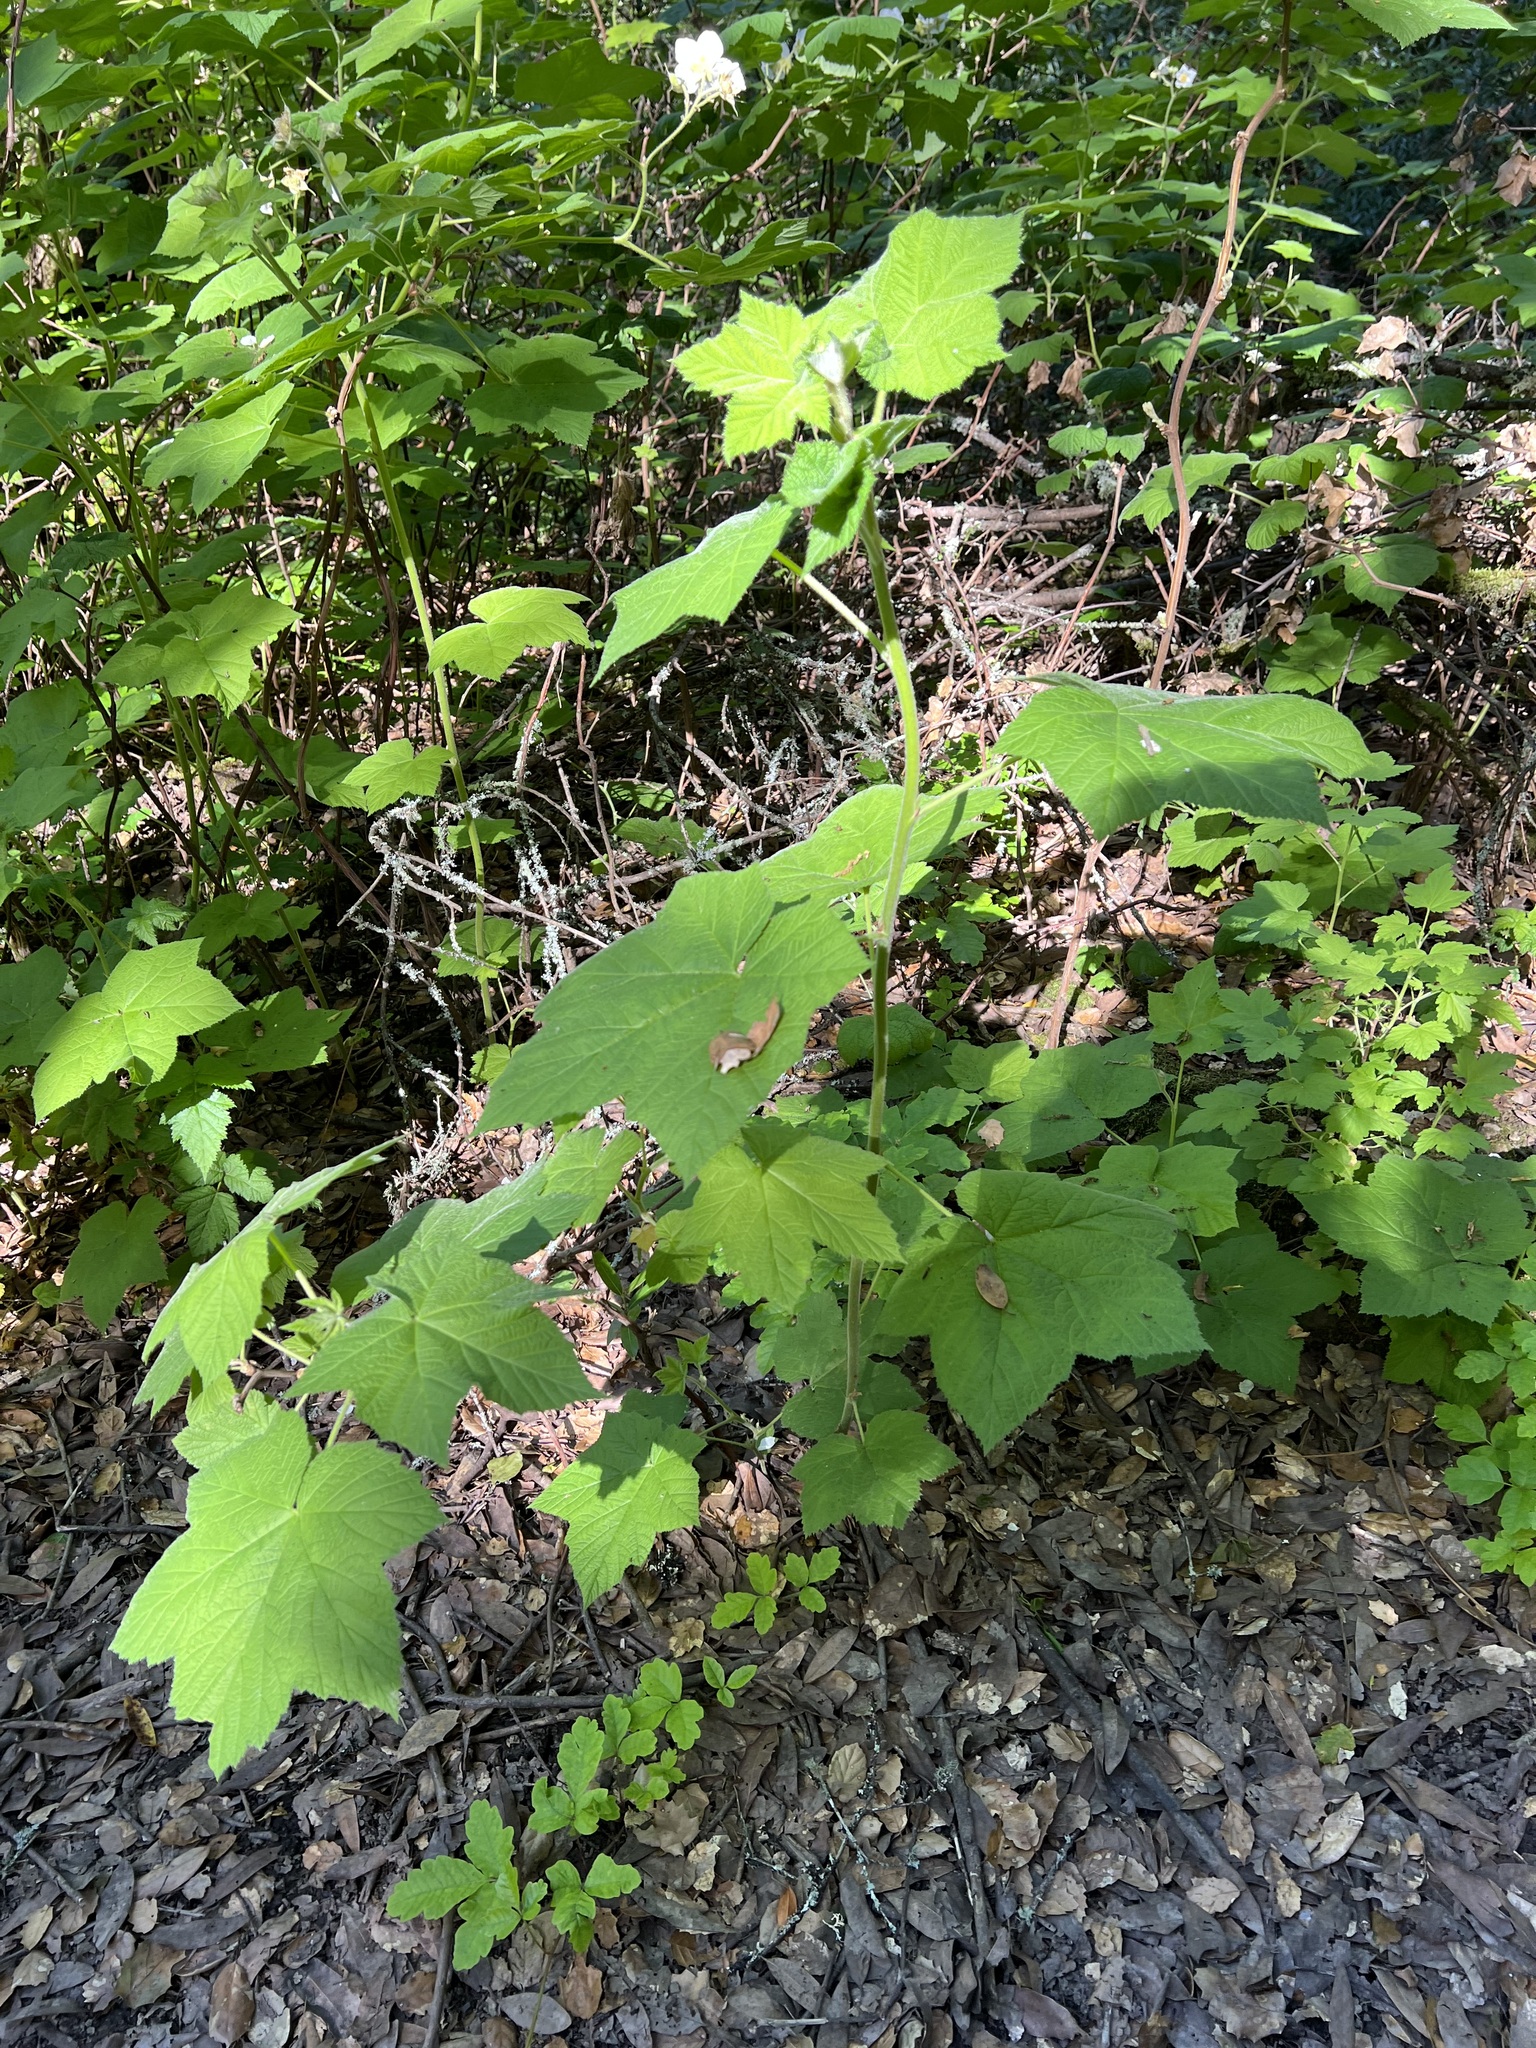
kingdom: Plantae
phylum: Tracheophyta
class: Magnoliopsida
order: Rosales
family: Rosaceae
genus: Rubus
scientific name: Rubus parviflorus
